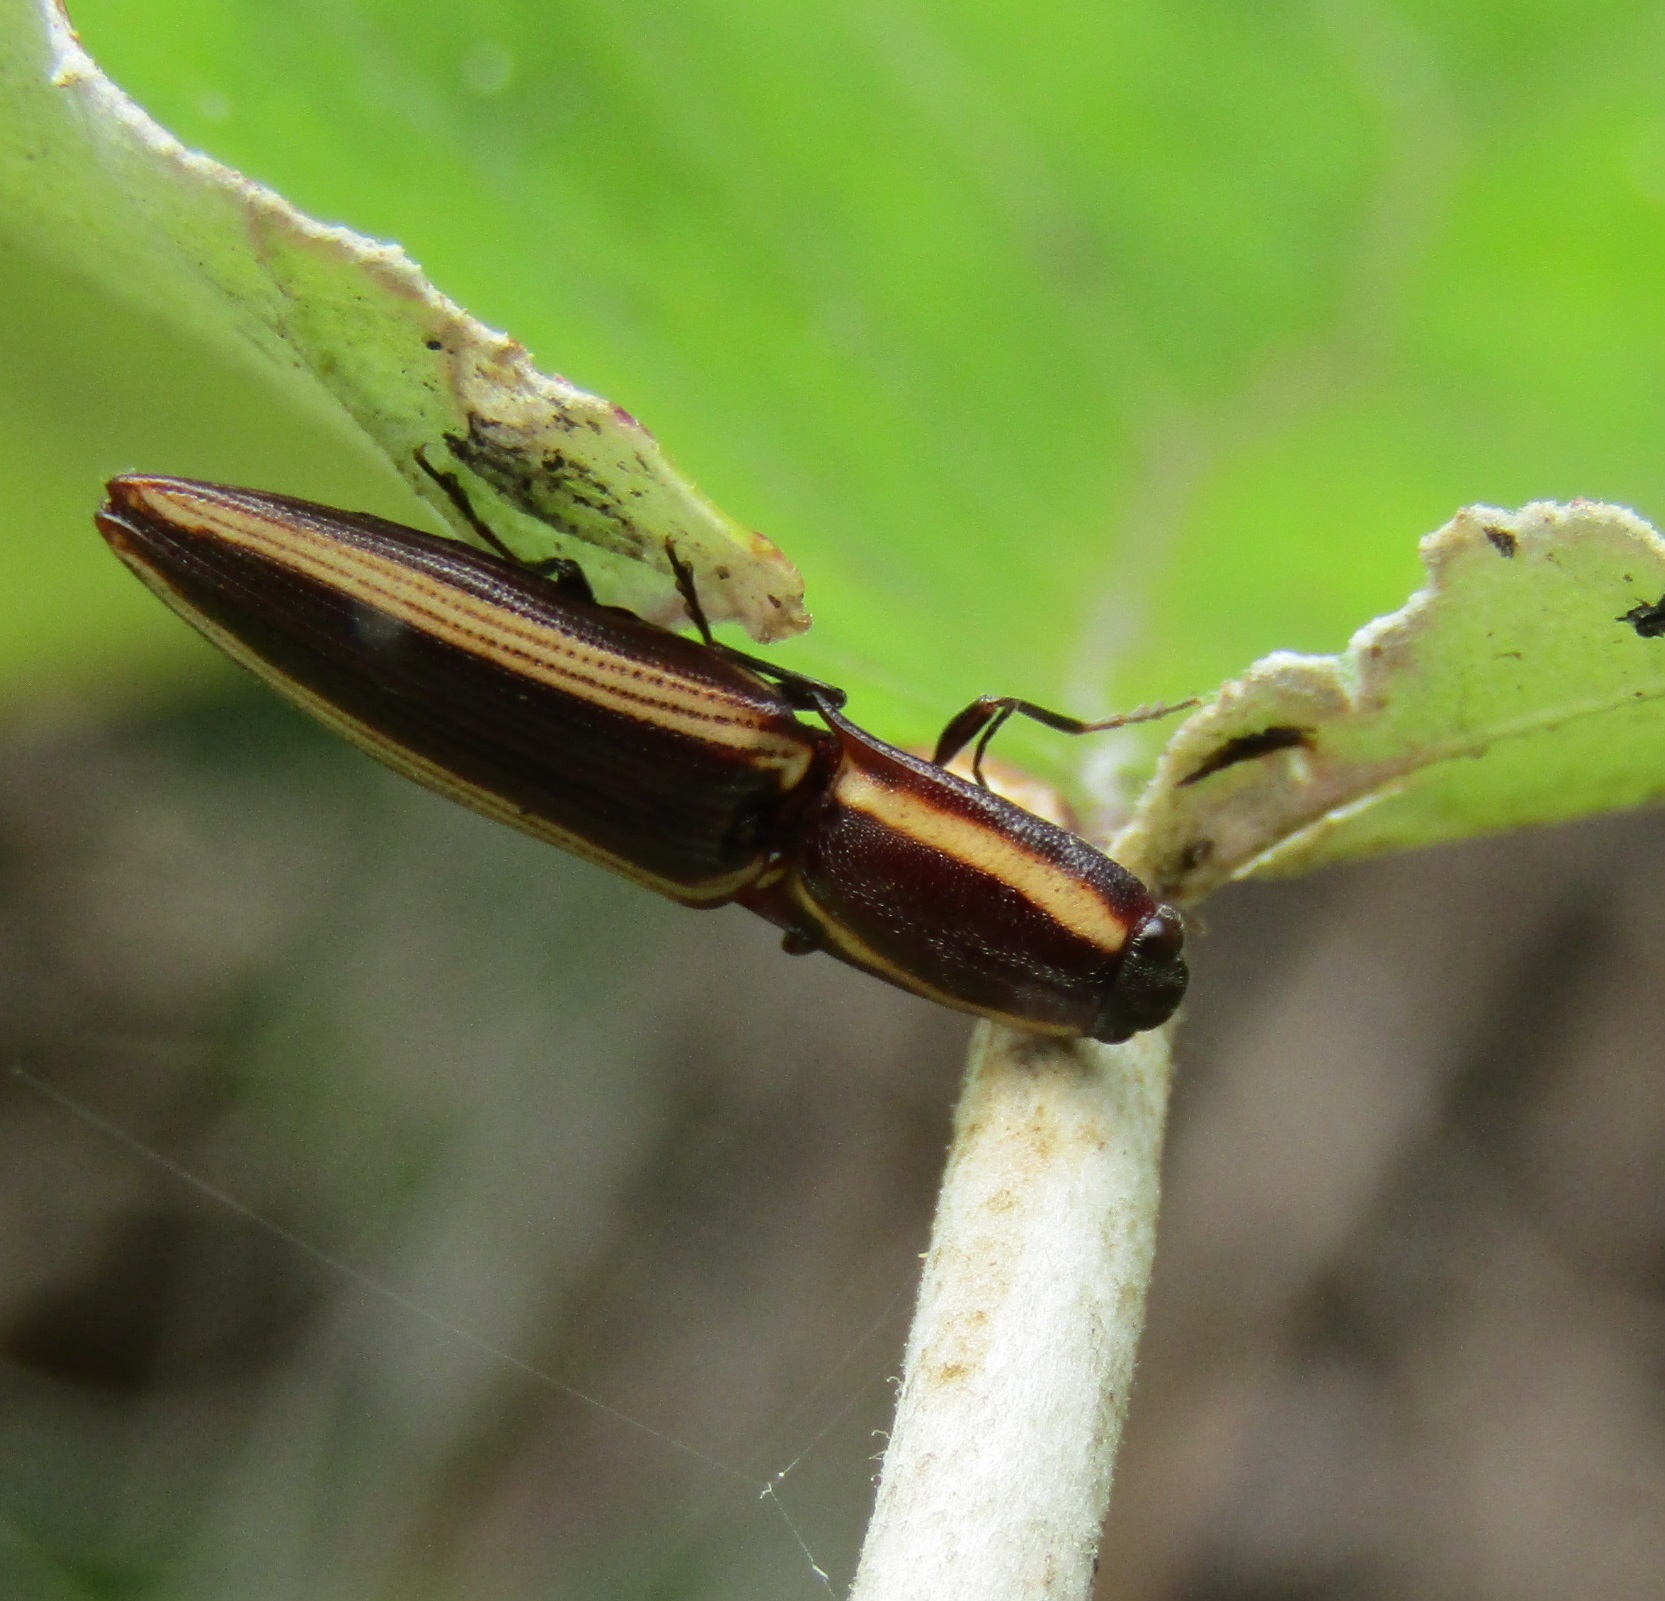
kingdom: Animalia
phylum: Arthropoda
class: Insecta
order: Coleoptera
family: Elateridae
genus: Metablax
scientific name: Metablax
